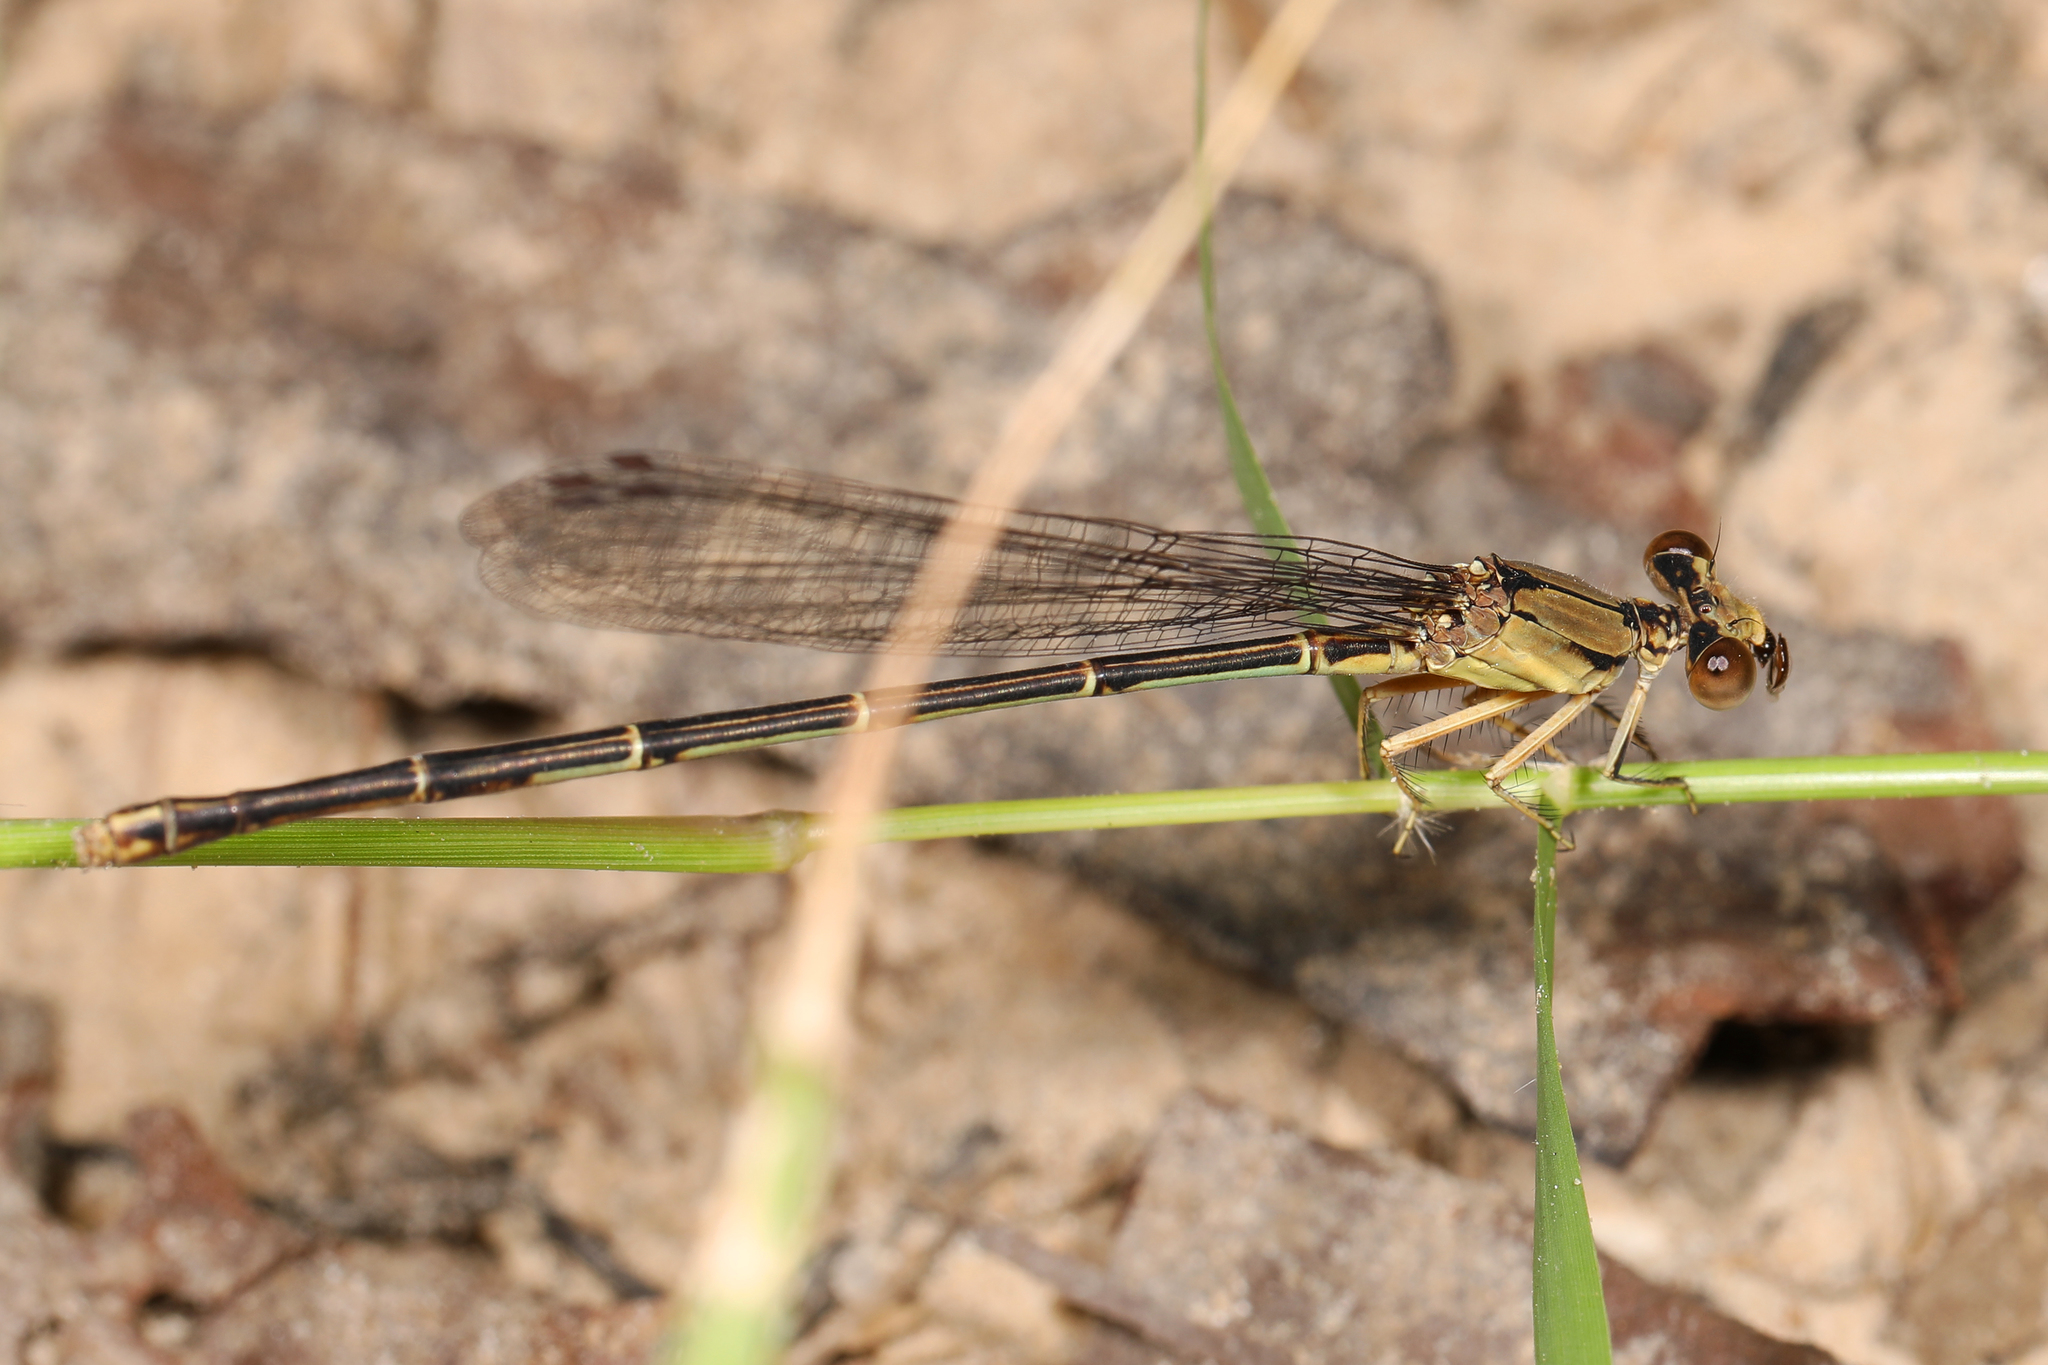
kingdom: Animalia
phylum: Arthropoda
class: Insecta
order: Odonata
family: Coenagrionidae
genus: Argia
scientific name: Argia apicalis
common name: Blue-fronted dancer
